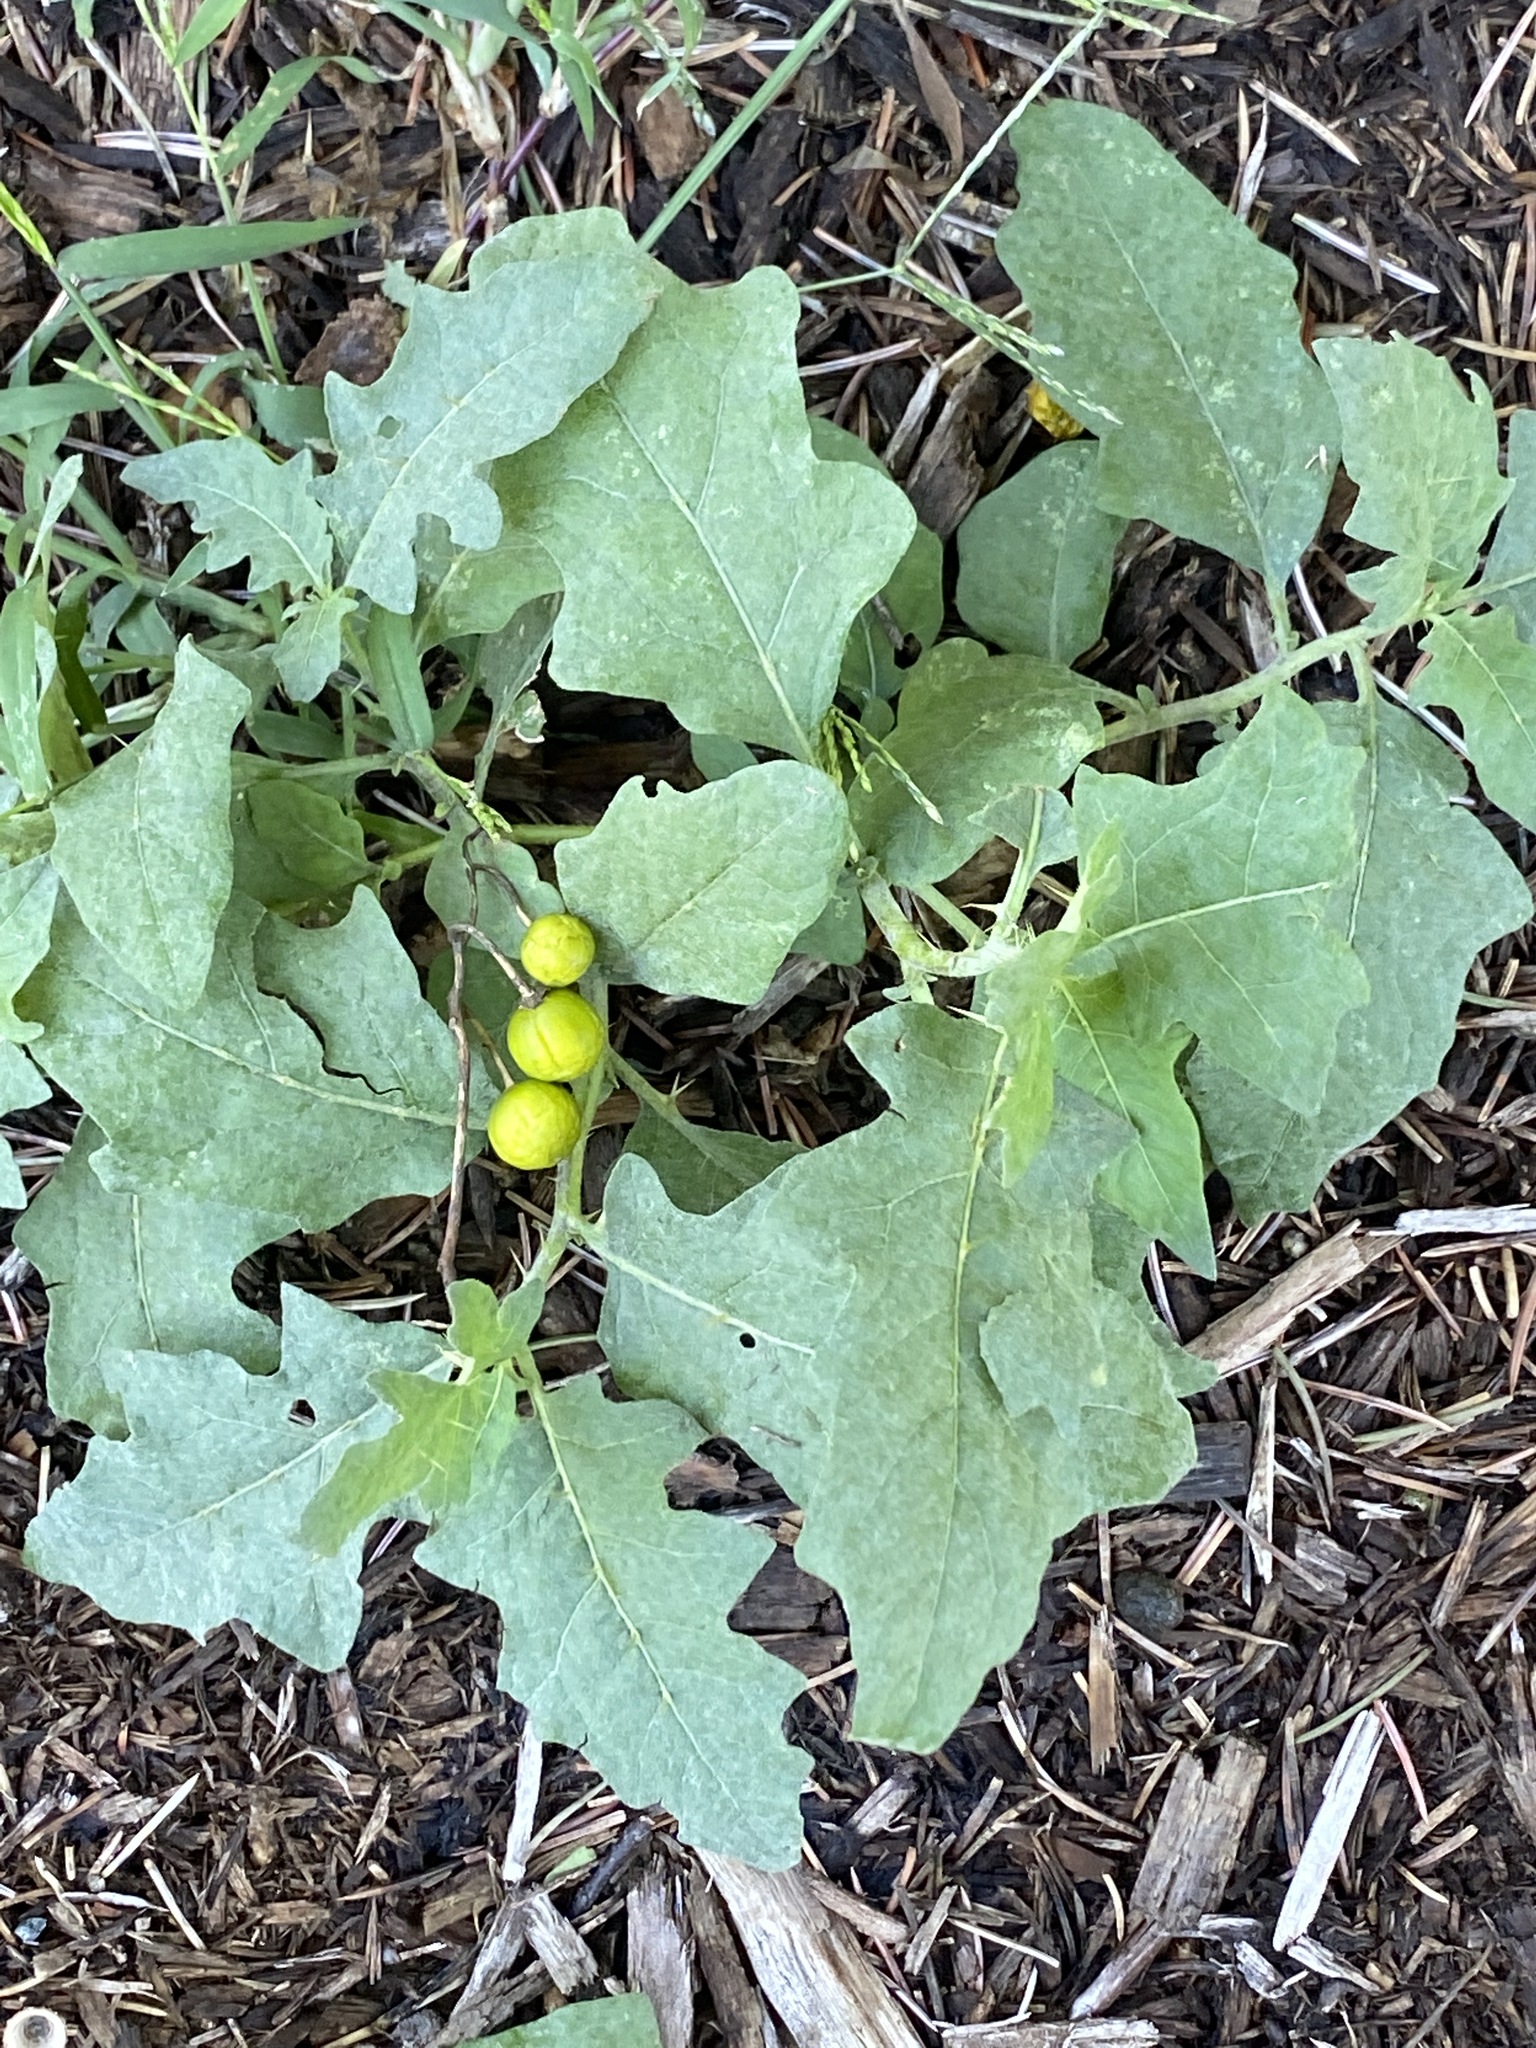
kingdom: Plantae
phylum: Tracheophyta
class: Magnoliopsida
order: Solanales
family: Solanaceae
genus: Solanum
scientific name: Solanum carolinense
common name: Horse-nettle
